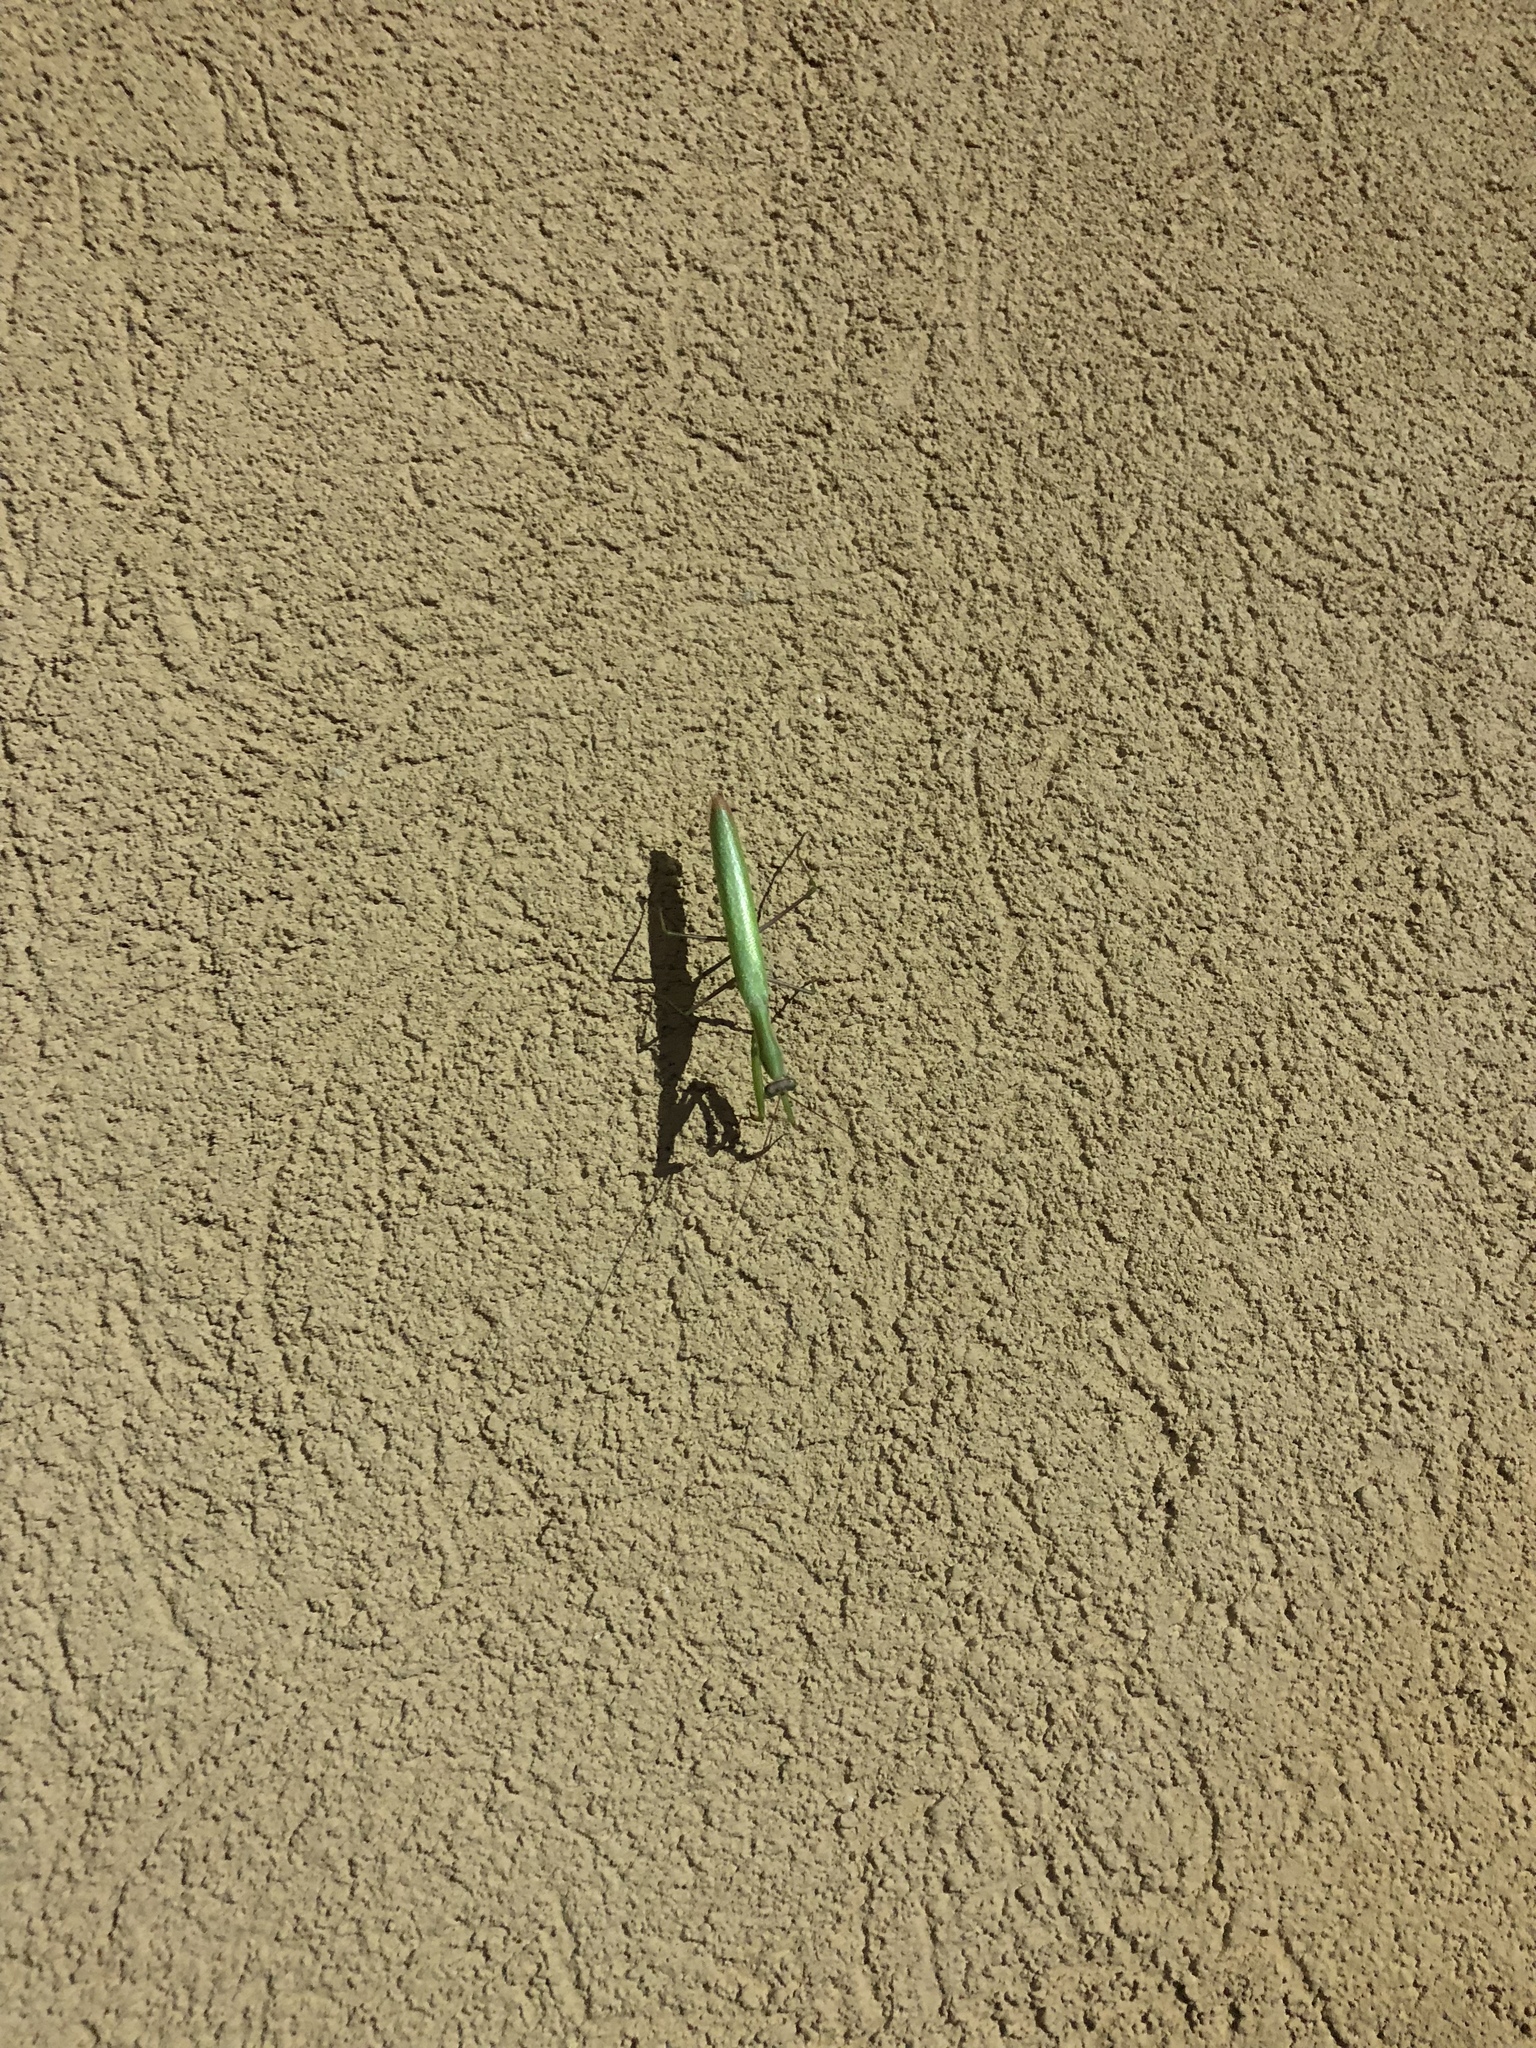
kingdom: Animalia
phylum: Arthropoda
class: Insecta
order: Mantodea
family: Mantidae
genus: Mantis
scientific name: Mantis religiosa
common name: Praying mantis
